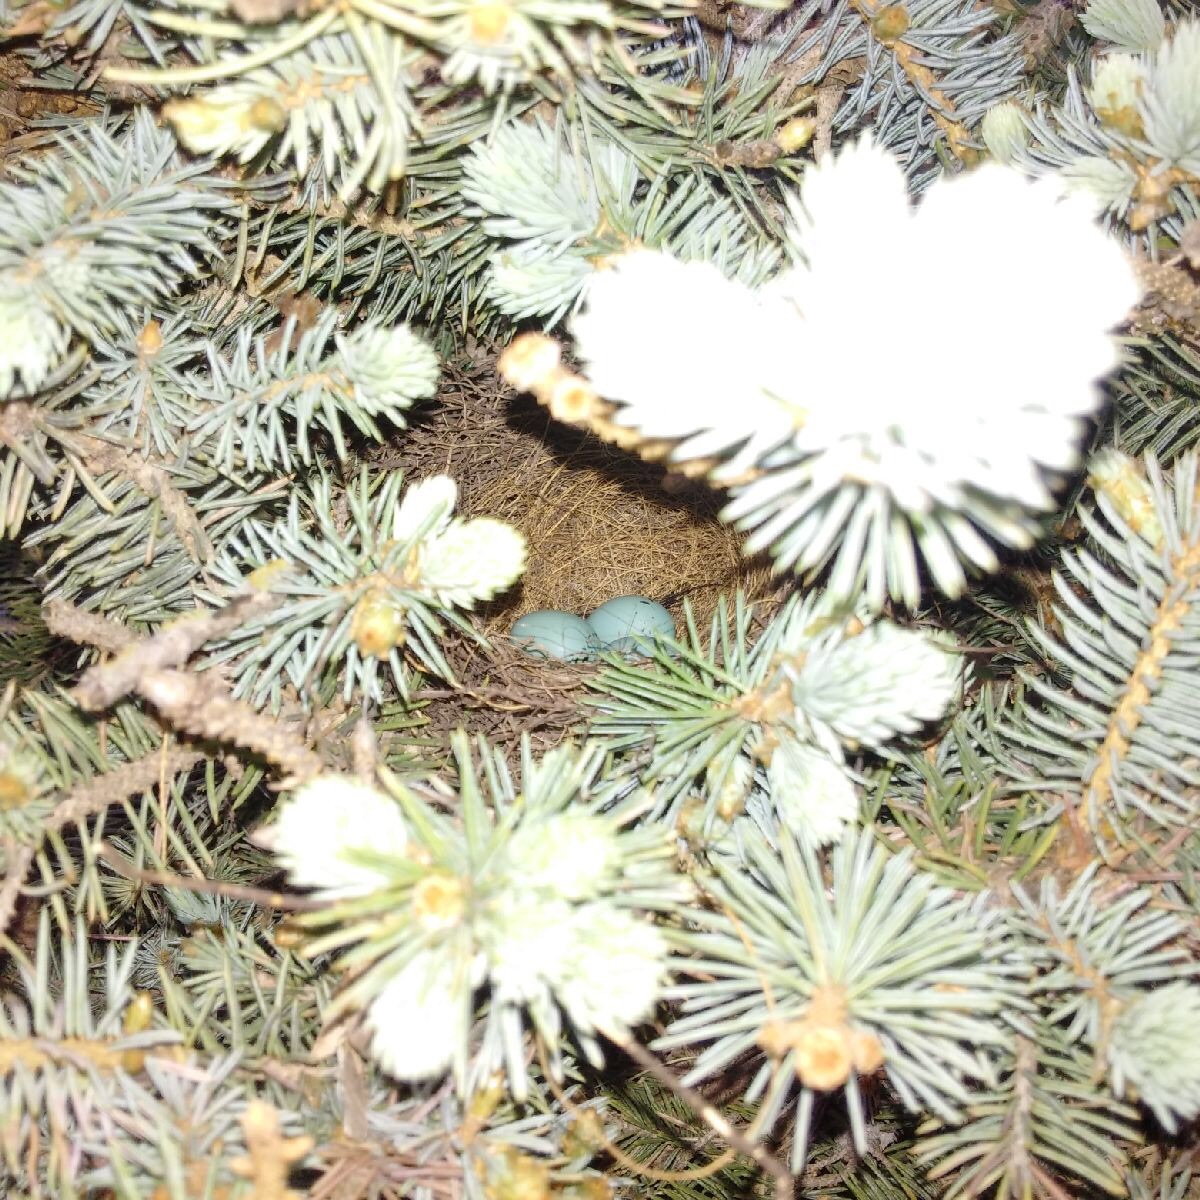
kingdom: Animalia
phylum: Chordata
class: Aves
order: Passeriformes
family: Passerellidae
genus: Spizella
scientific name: Spizella passerina
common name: Chipping sparrow
